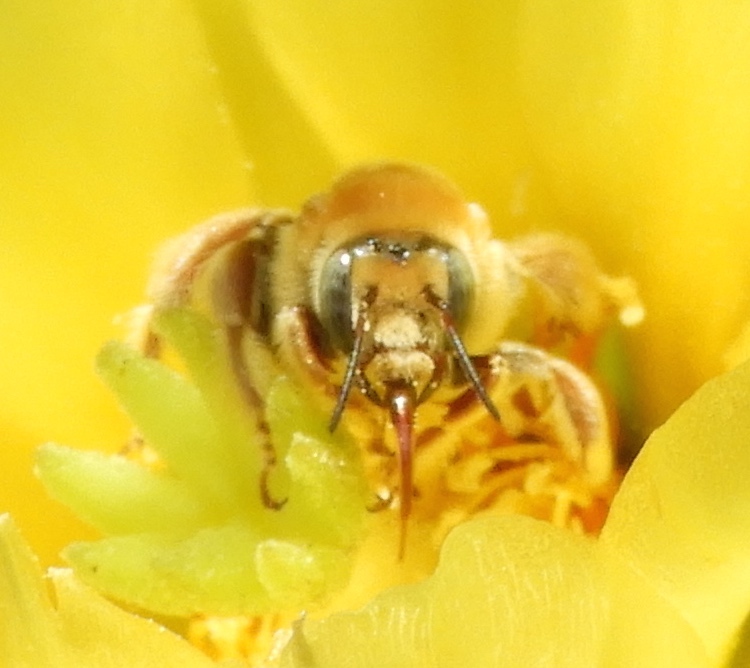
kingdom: Animalia
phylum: Arthropoda
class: Insecta
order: Hymenoptera
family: Apidae
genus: Diadasia
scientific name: Diadasia
